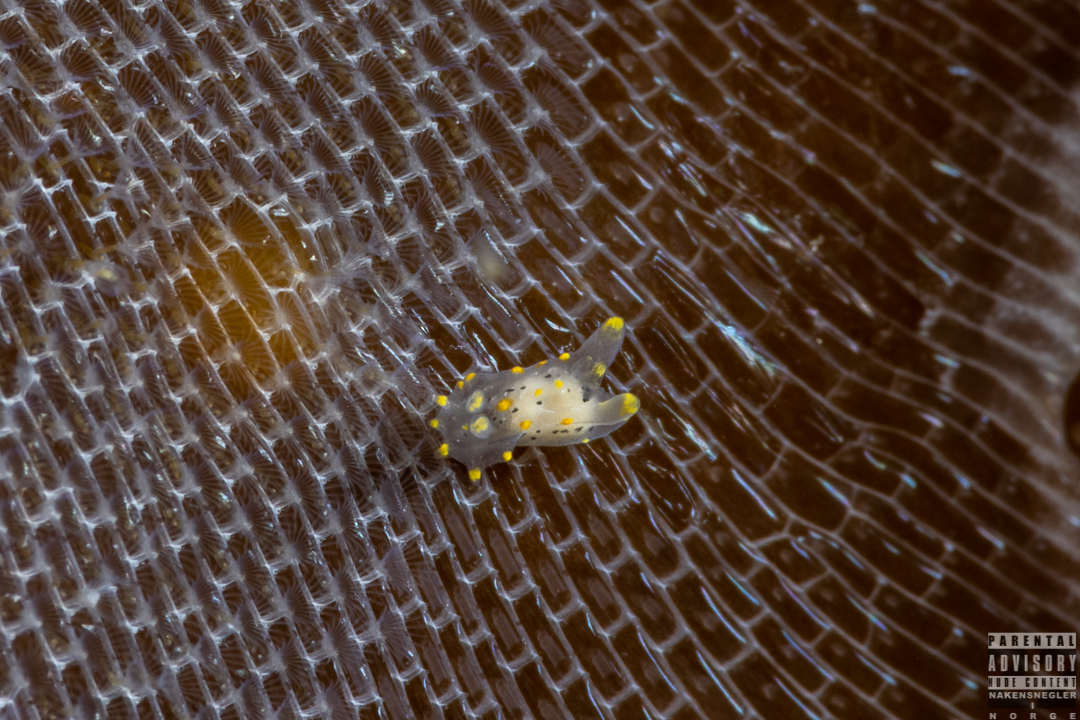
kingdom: Animalia
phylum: Mollusca
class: Gastropoda
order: Nudibranchia
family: Polyceridae
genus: Polycera
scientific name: Polycera norvegica
